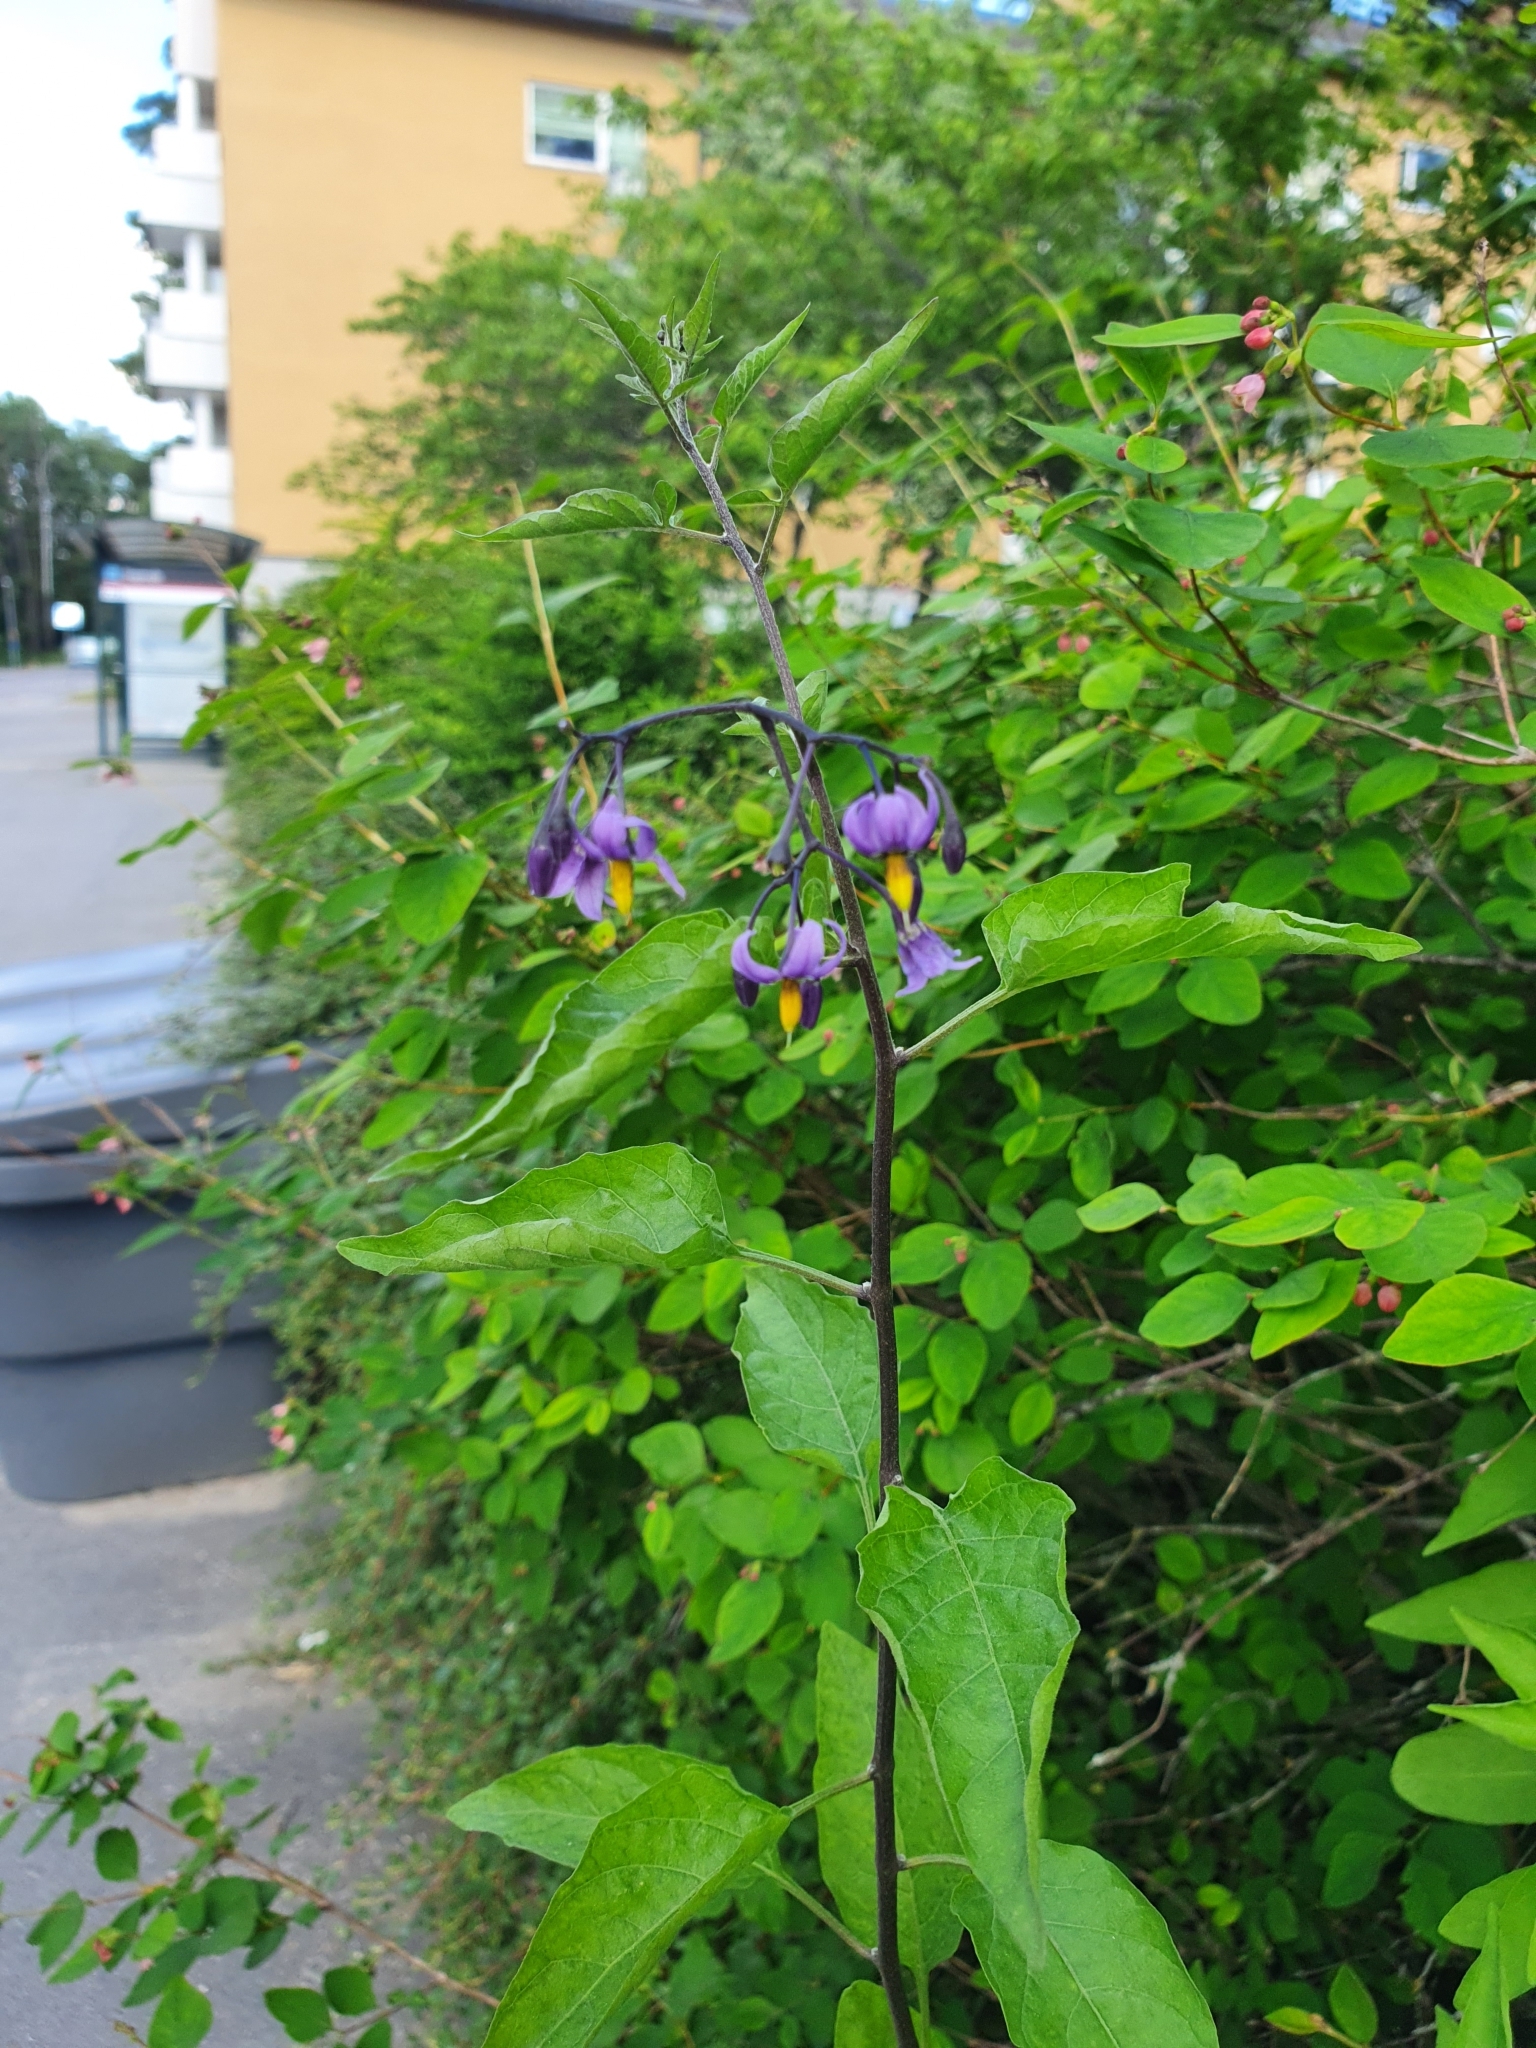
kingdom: Plantae
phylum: Tracheophyta
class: Magnoliopsida
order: Solanales
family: Solanaceae
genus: Solanum
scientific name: Solanum dulcamara
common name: Climbing nightshade
